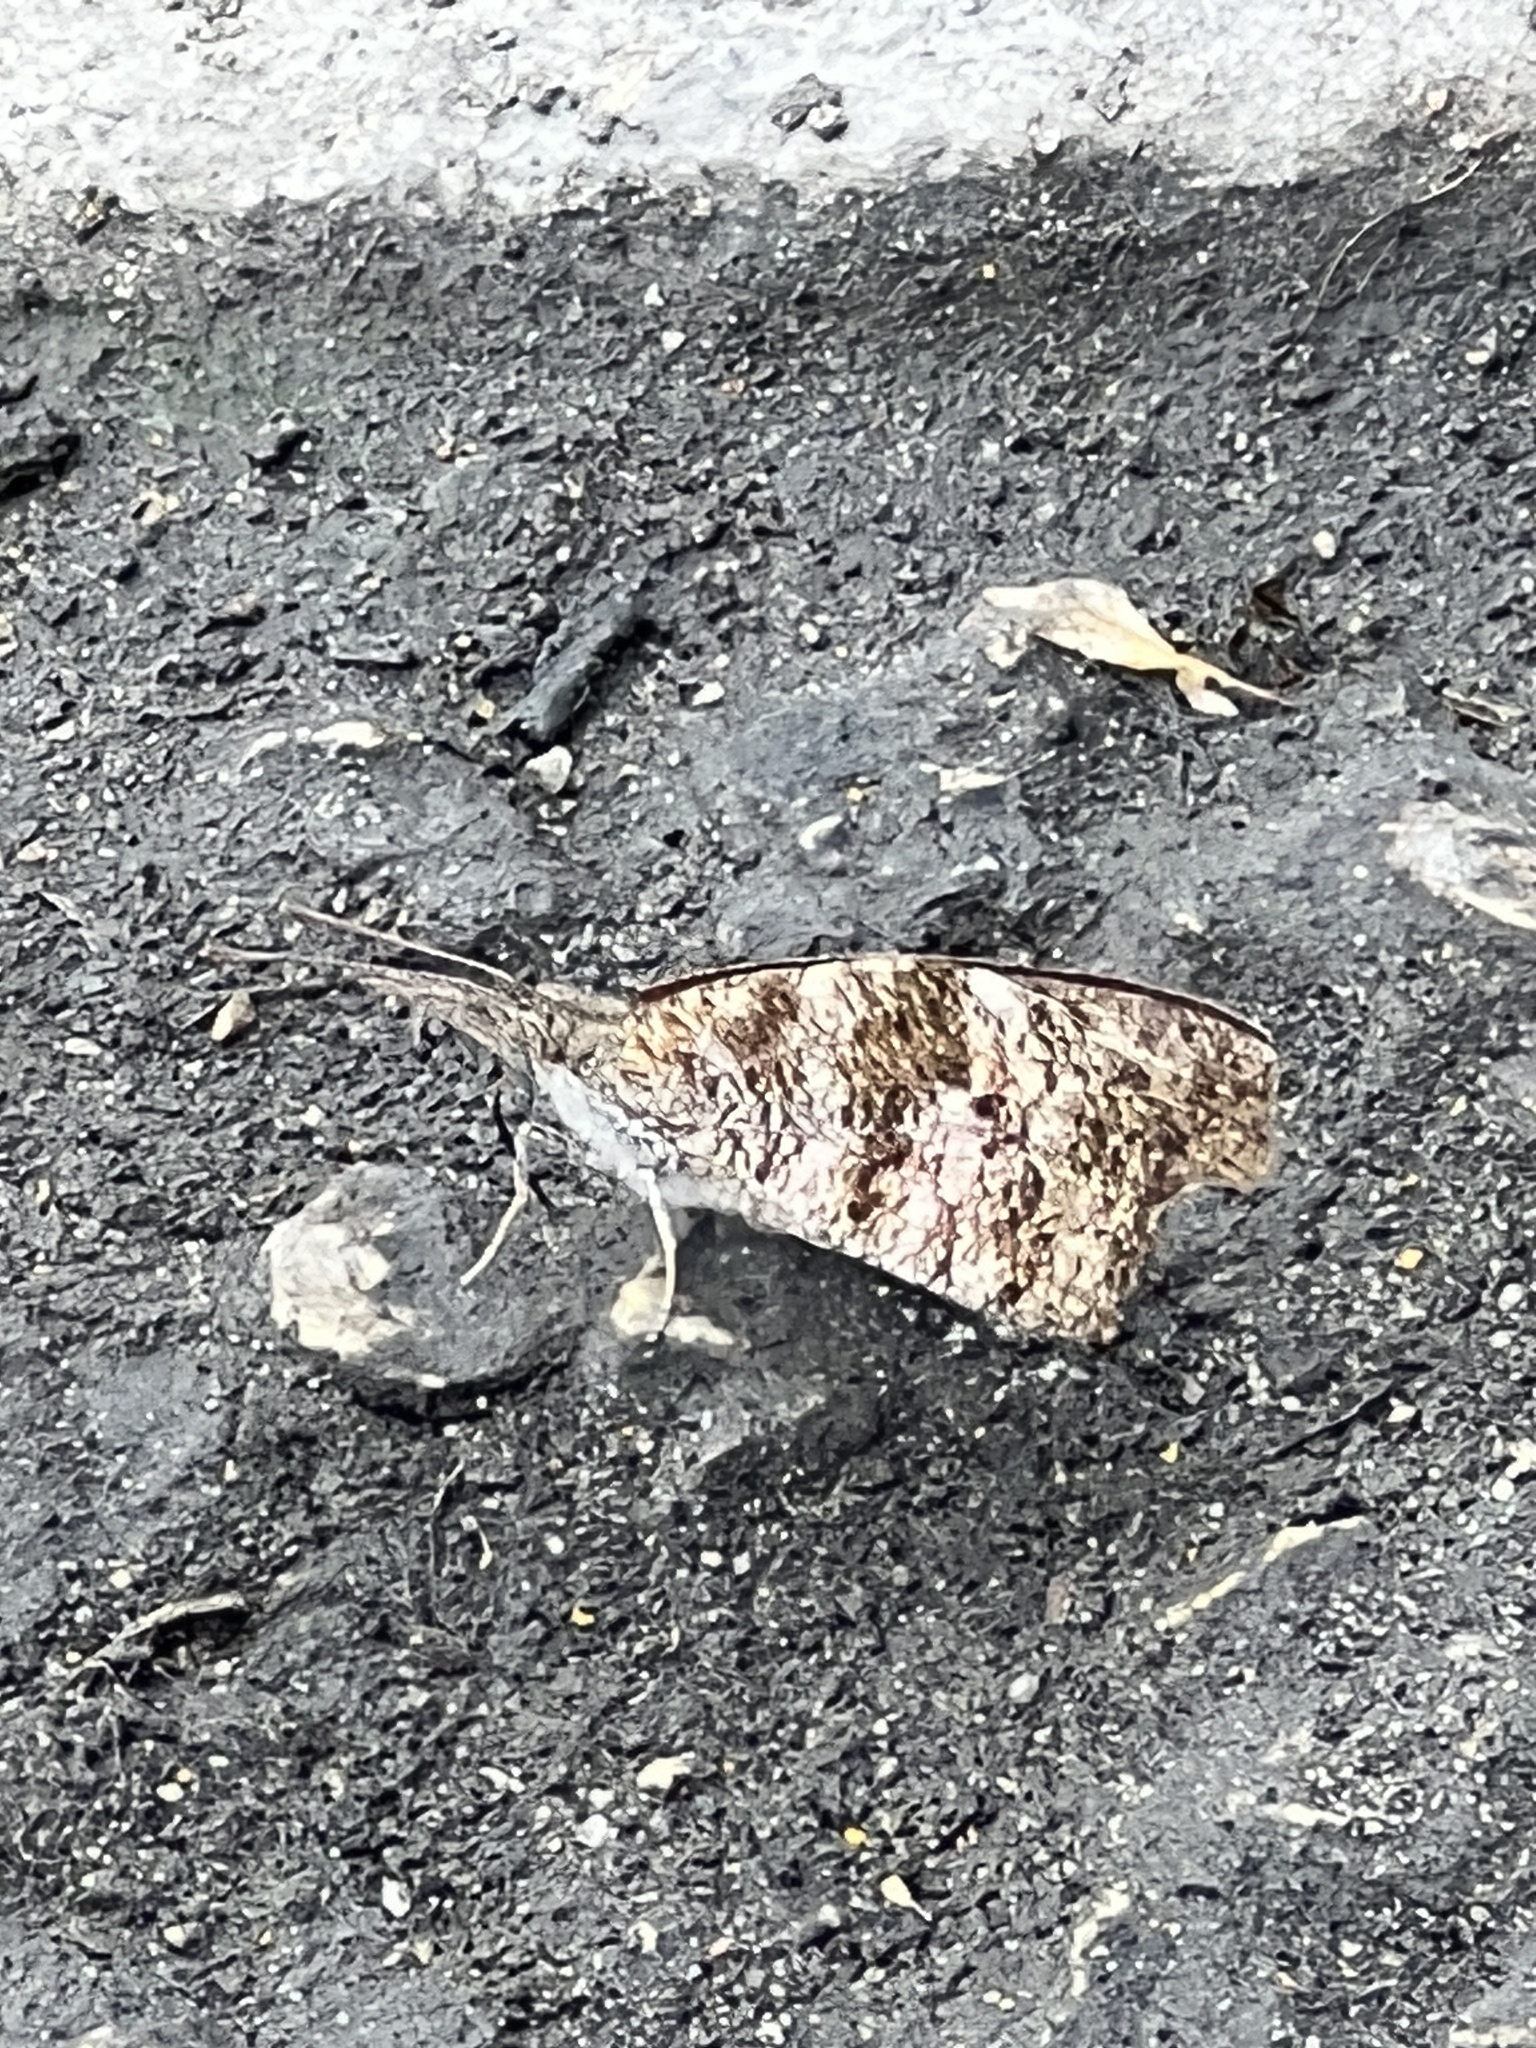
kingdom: Animalia
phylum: Arthropoda
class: Insecta
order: Lepidoptera
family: Nymphalidae
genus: Libytheana
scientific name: Libytheana carinenta
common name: American snout
